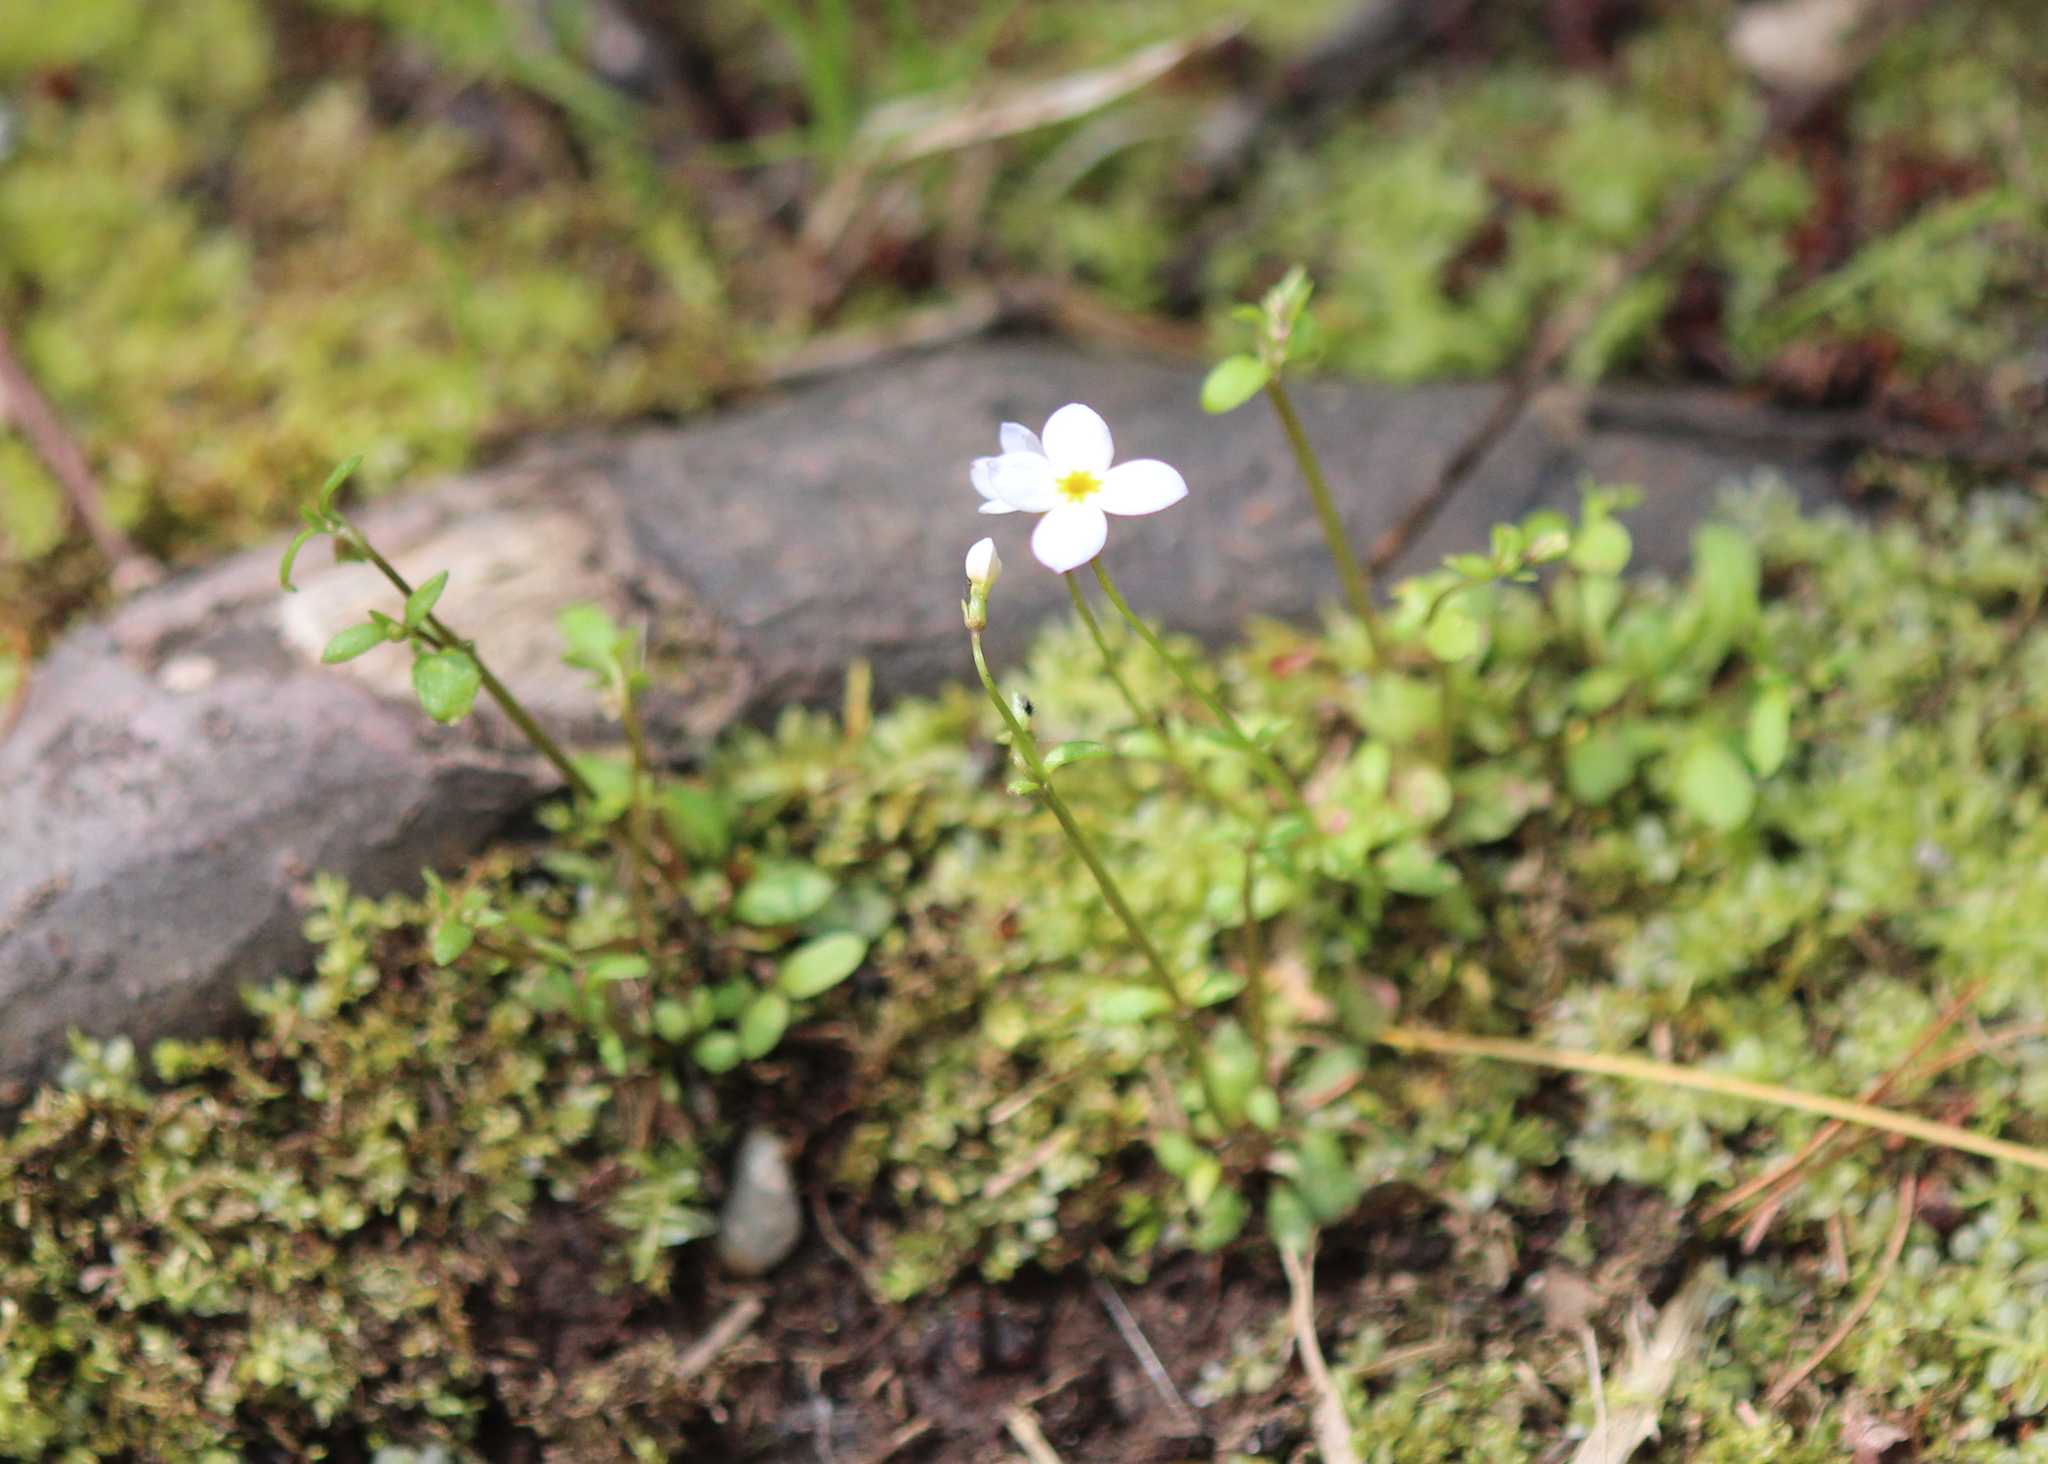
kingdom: Plantae
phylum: Tracheophyta
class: Magnoliopsida
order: Gentianales
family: Rubiaceae
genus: Houstonia
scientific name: Houstonia caerulea
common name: Bluets
